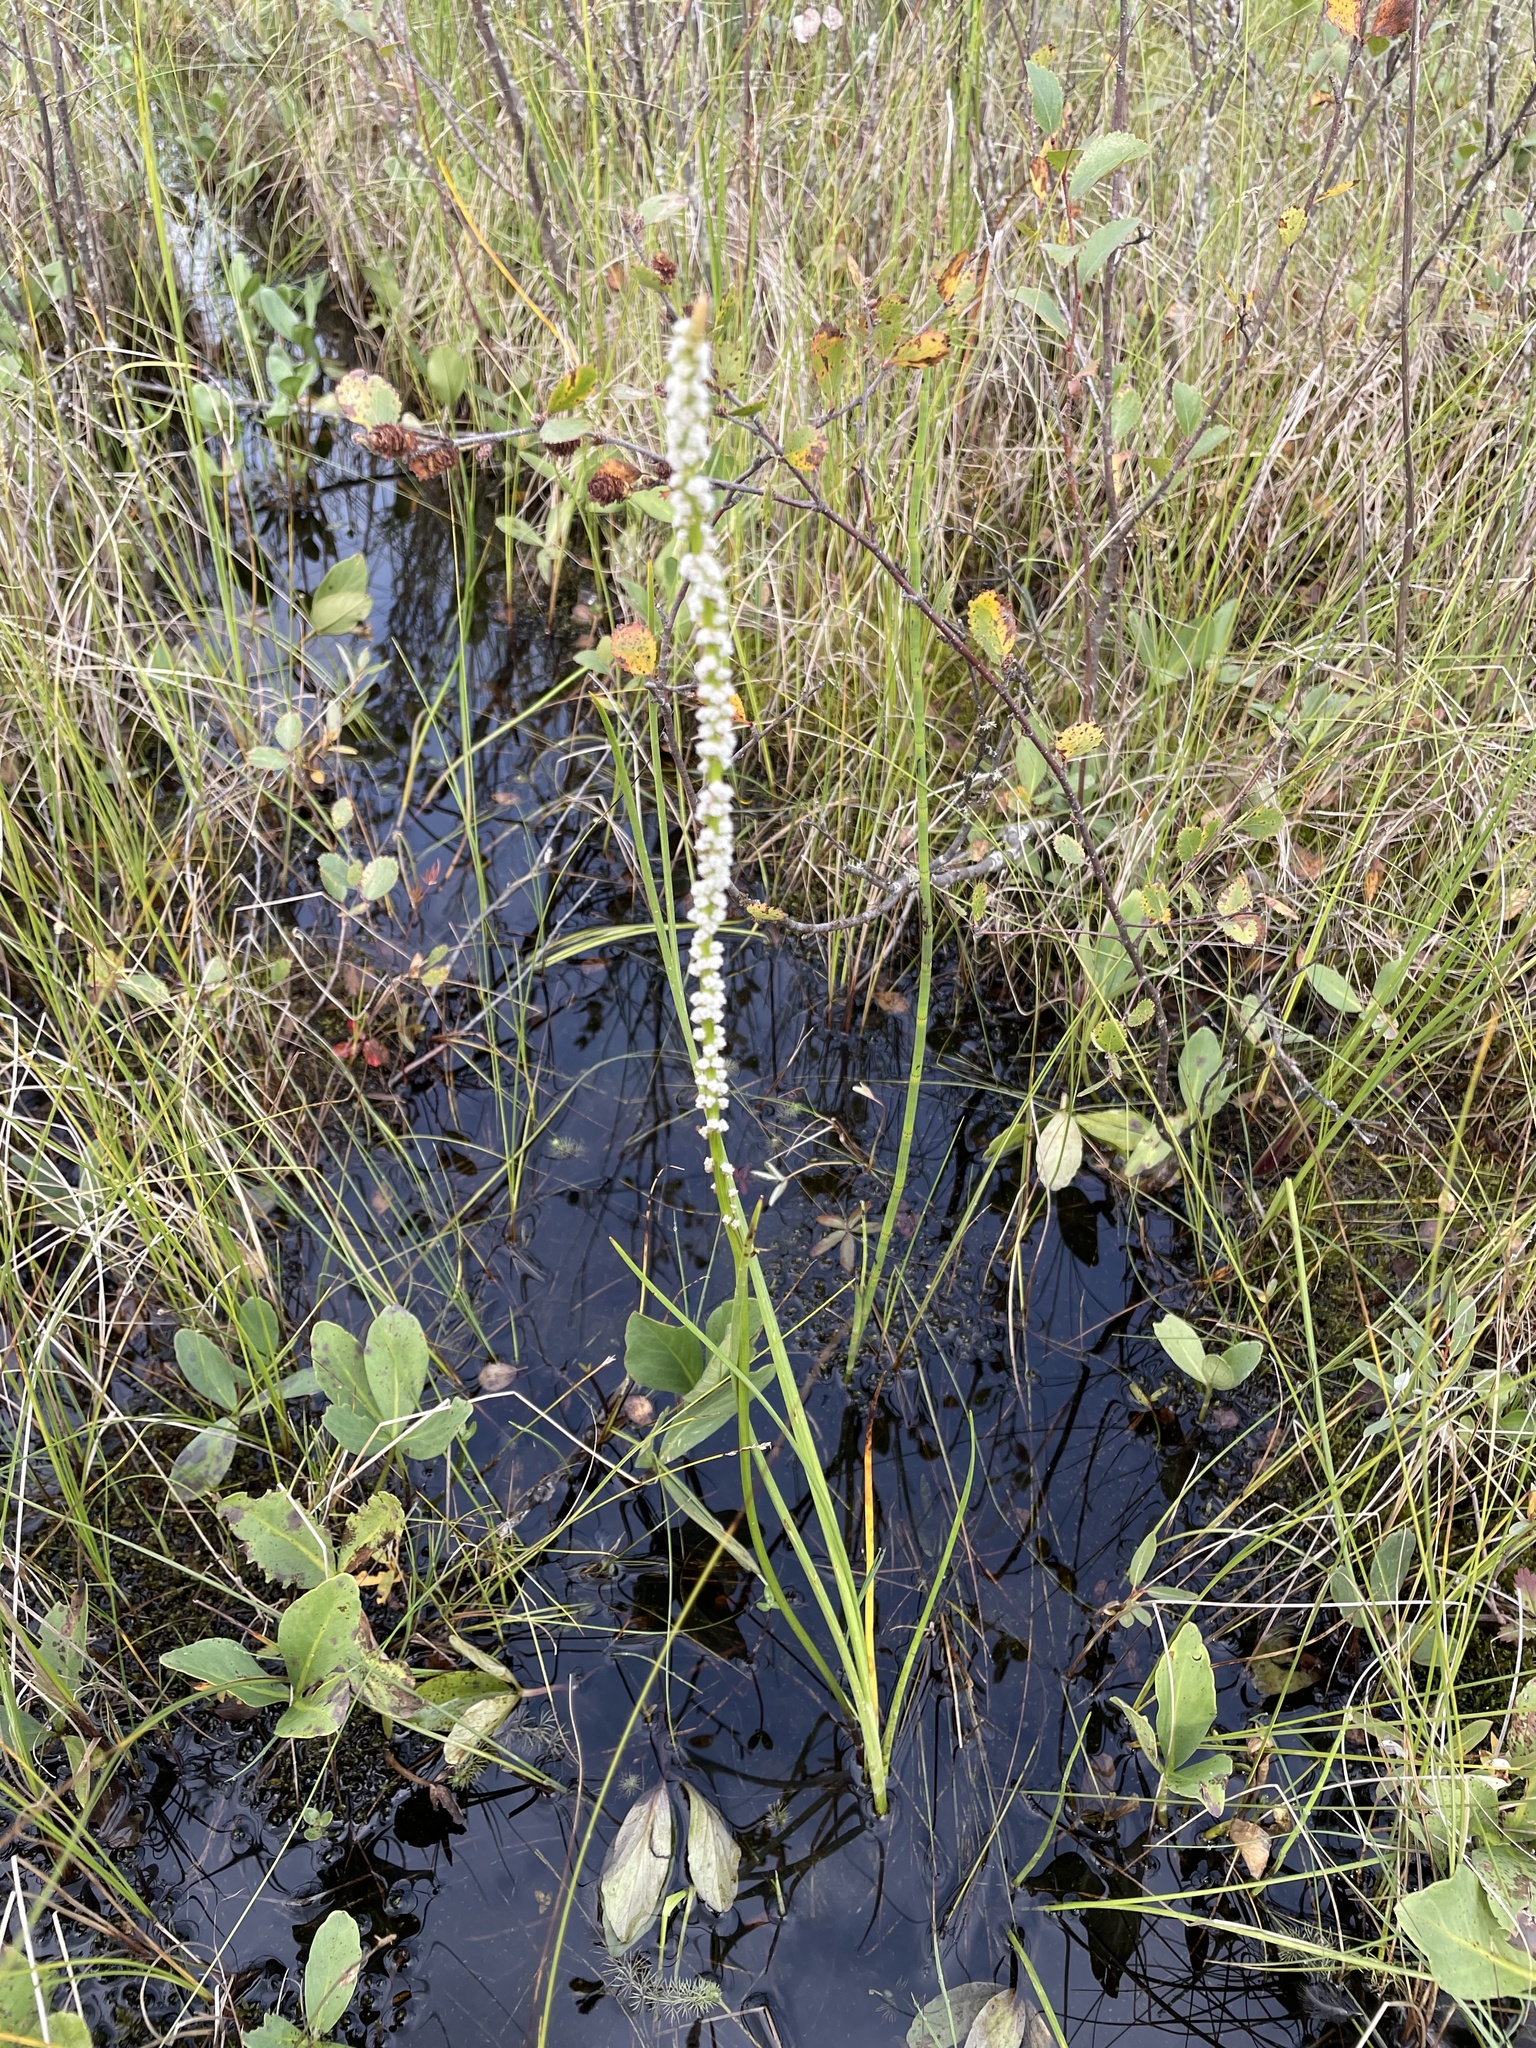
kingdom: Plantae
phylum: Tracheophyta
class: Liliopsida
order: Alismatales
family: Juncaginaceae
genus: Triglochin
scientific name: Triglochin maritima
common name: Sea arrowgrass
